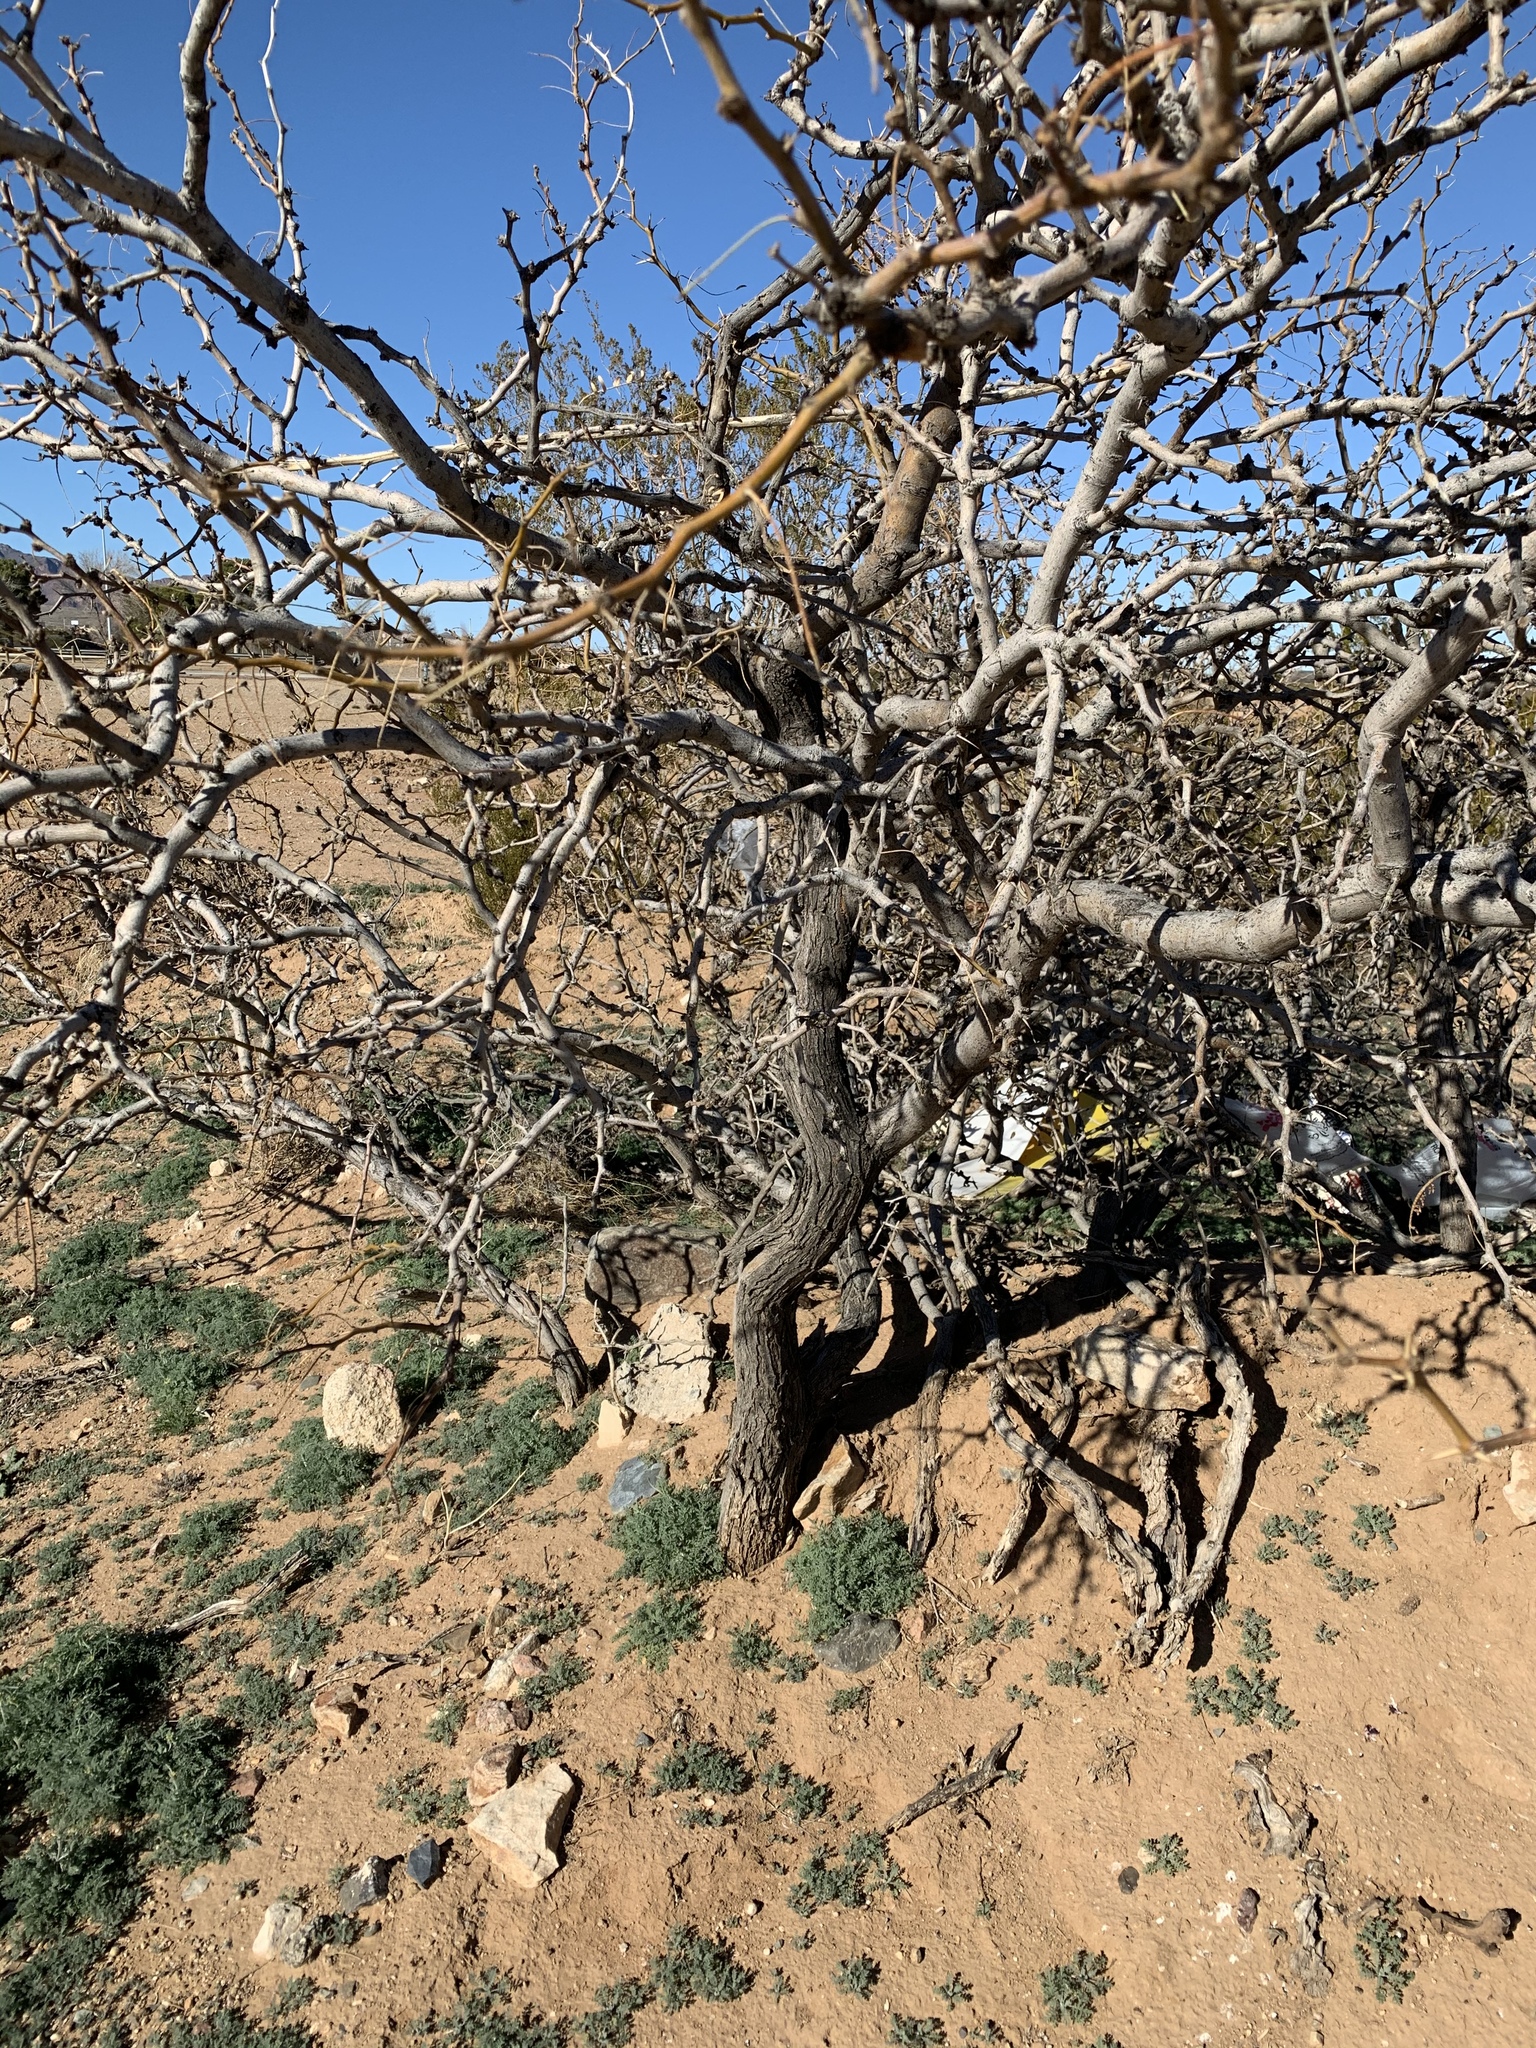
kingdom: Plantae
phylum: Tracheophyta
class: Magnoliopsida
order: Fabales
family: Fabaceae
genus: Prosopis
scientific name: Prosopis glandulosa
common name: Honey mesquite
